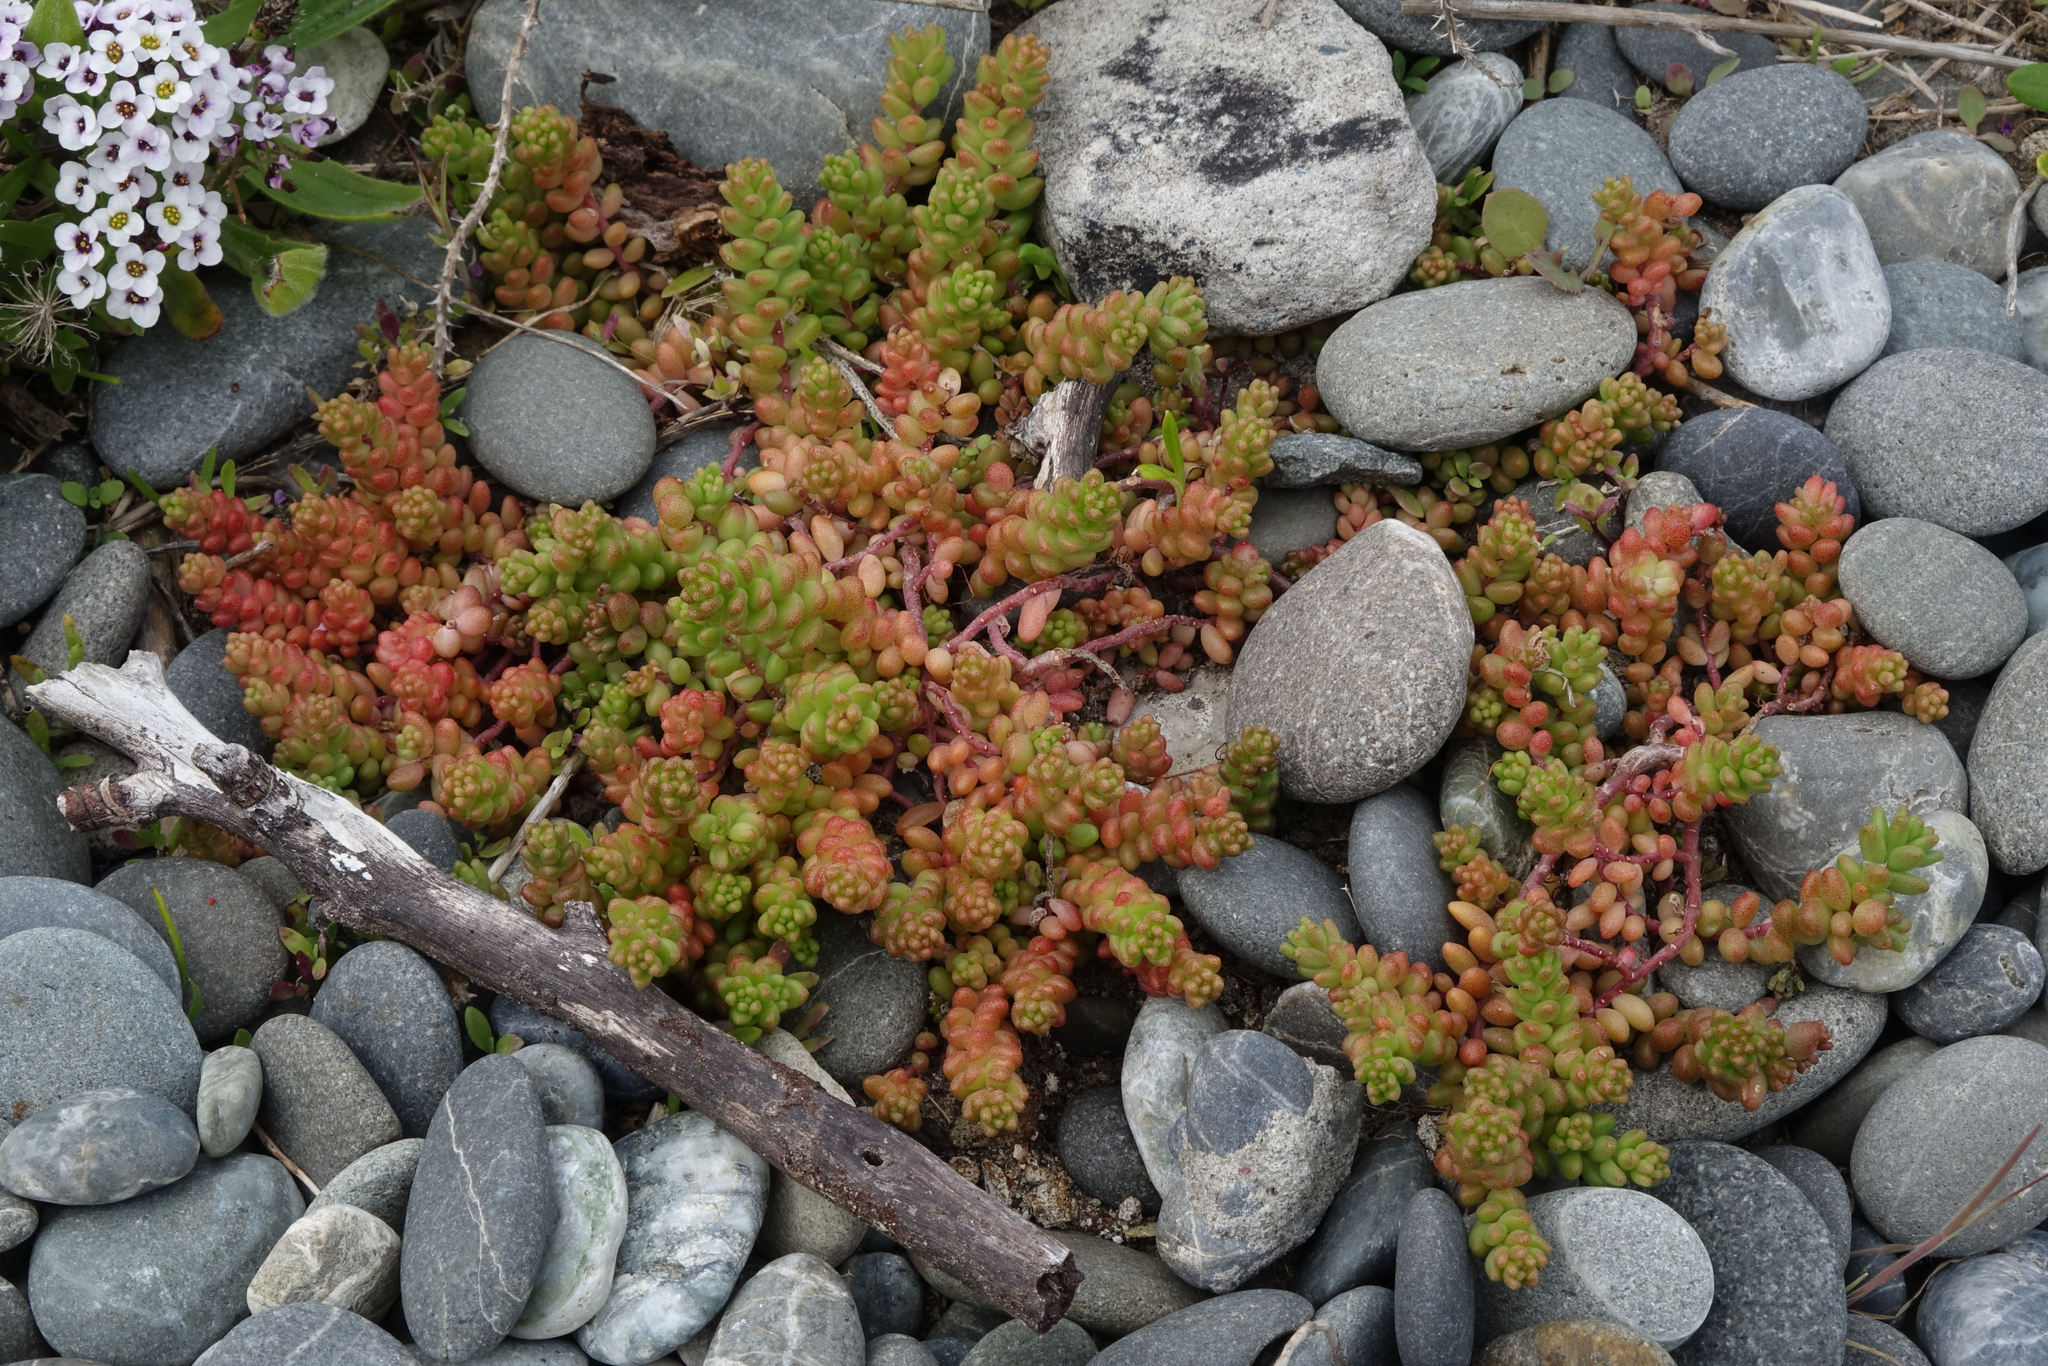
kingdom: Plantae
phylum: Tracheophyta
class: Magnoliopsida
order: Saxifragales
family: Crassulaceae
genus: Sedum
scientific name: Sedum album
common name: White stonecrop
